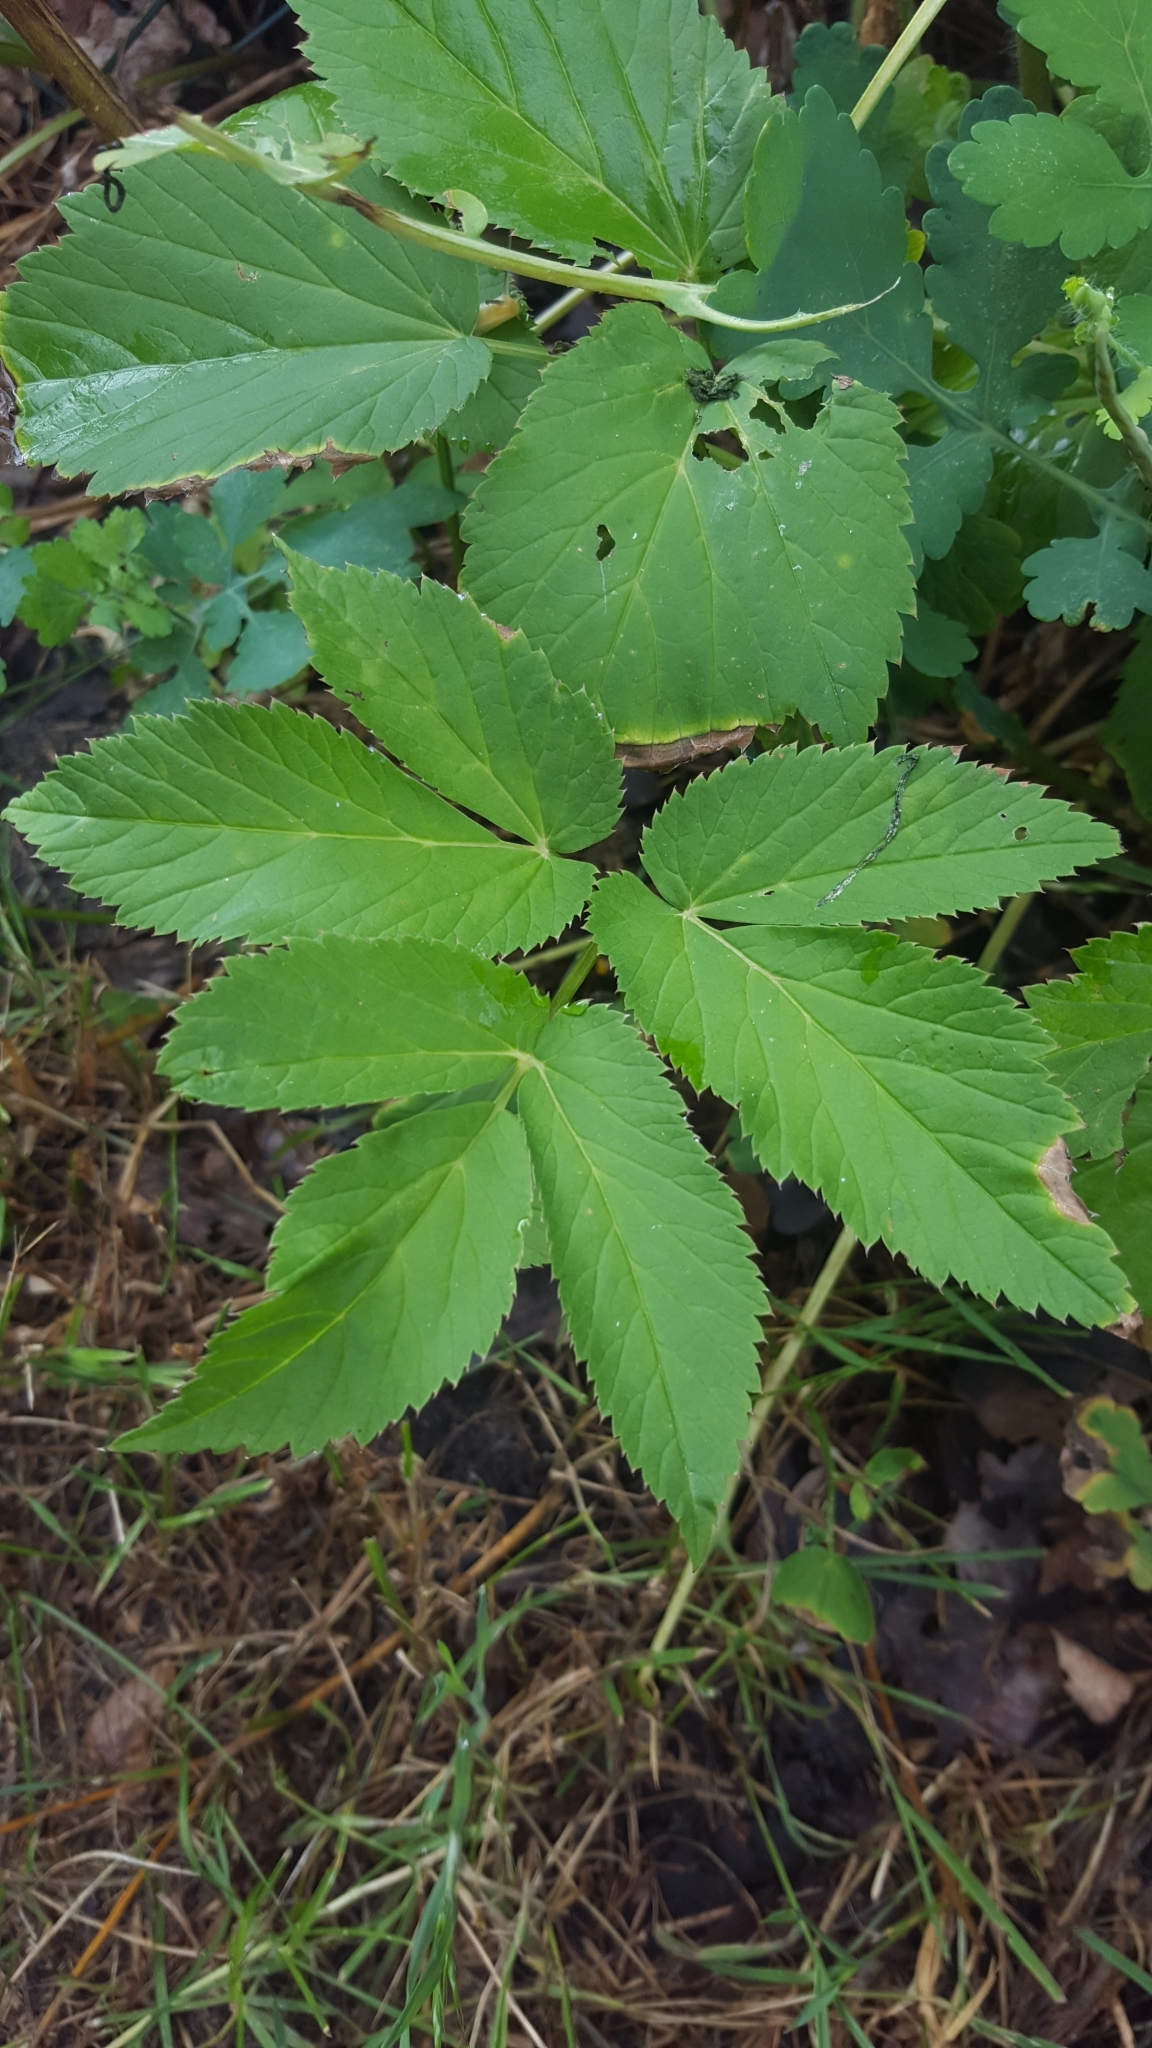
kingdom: Plantae
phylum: Tracheophyta
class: Magnoliopsida
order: Apiales
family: Apiaceae
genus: Aegopodium
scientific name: Aegopodium podagraria
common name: Ground-elder
